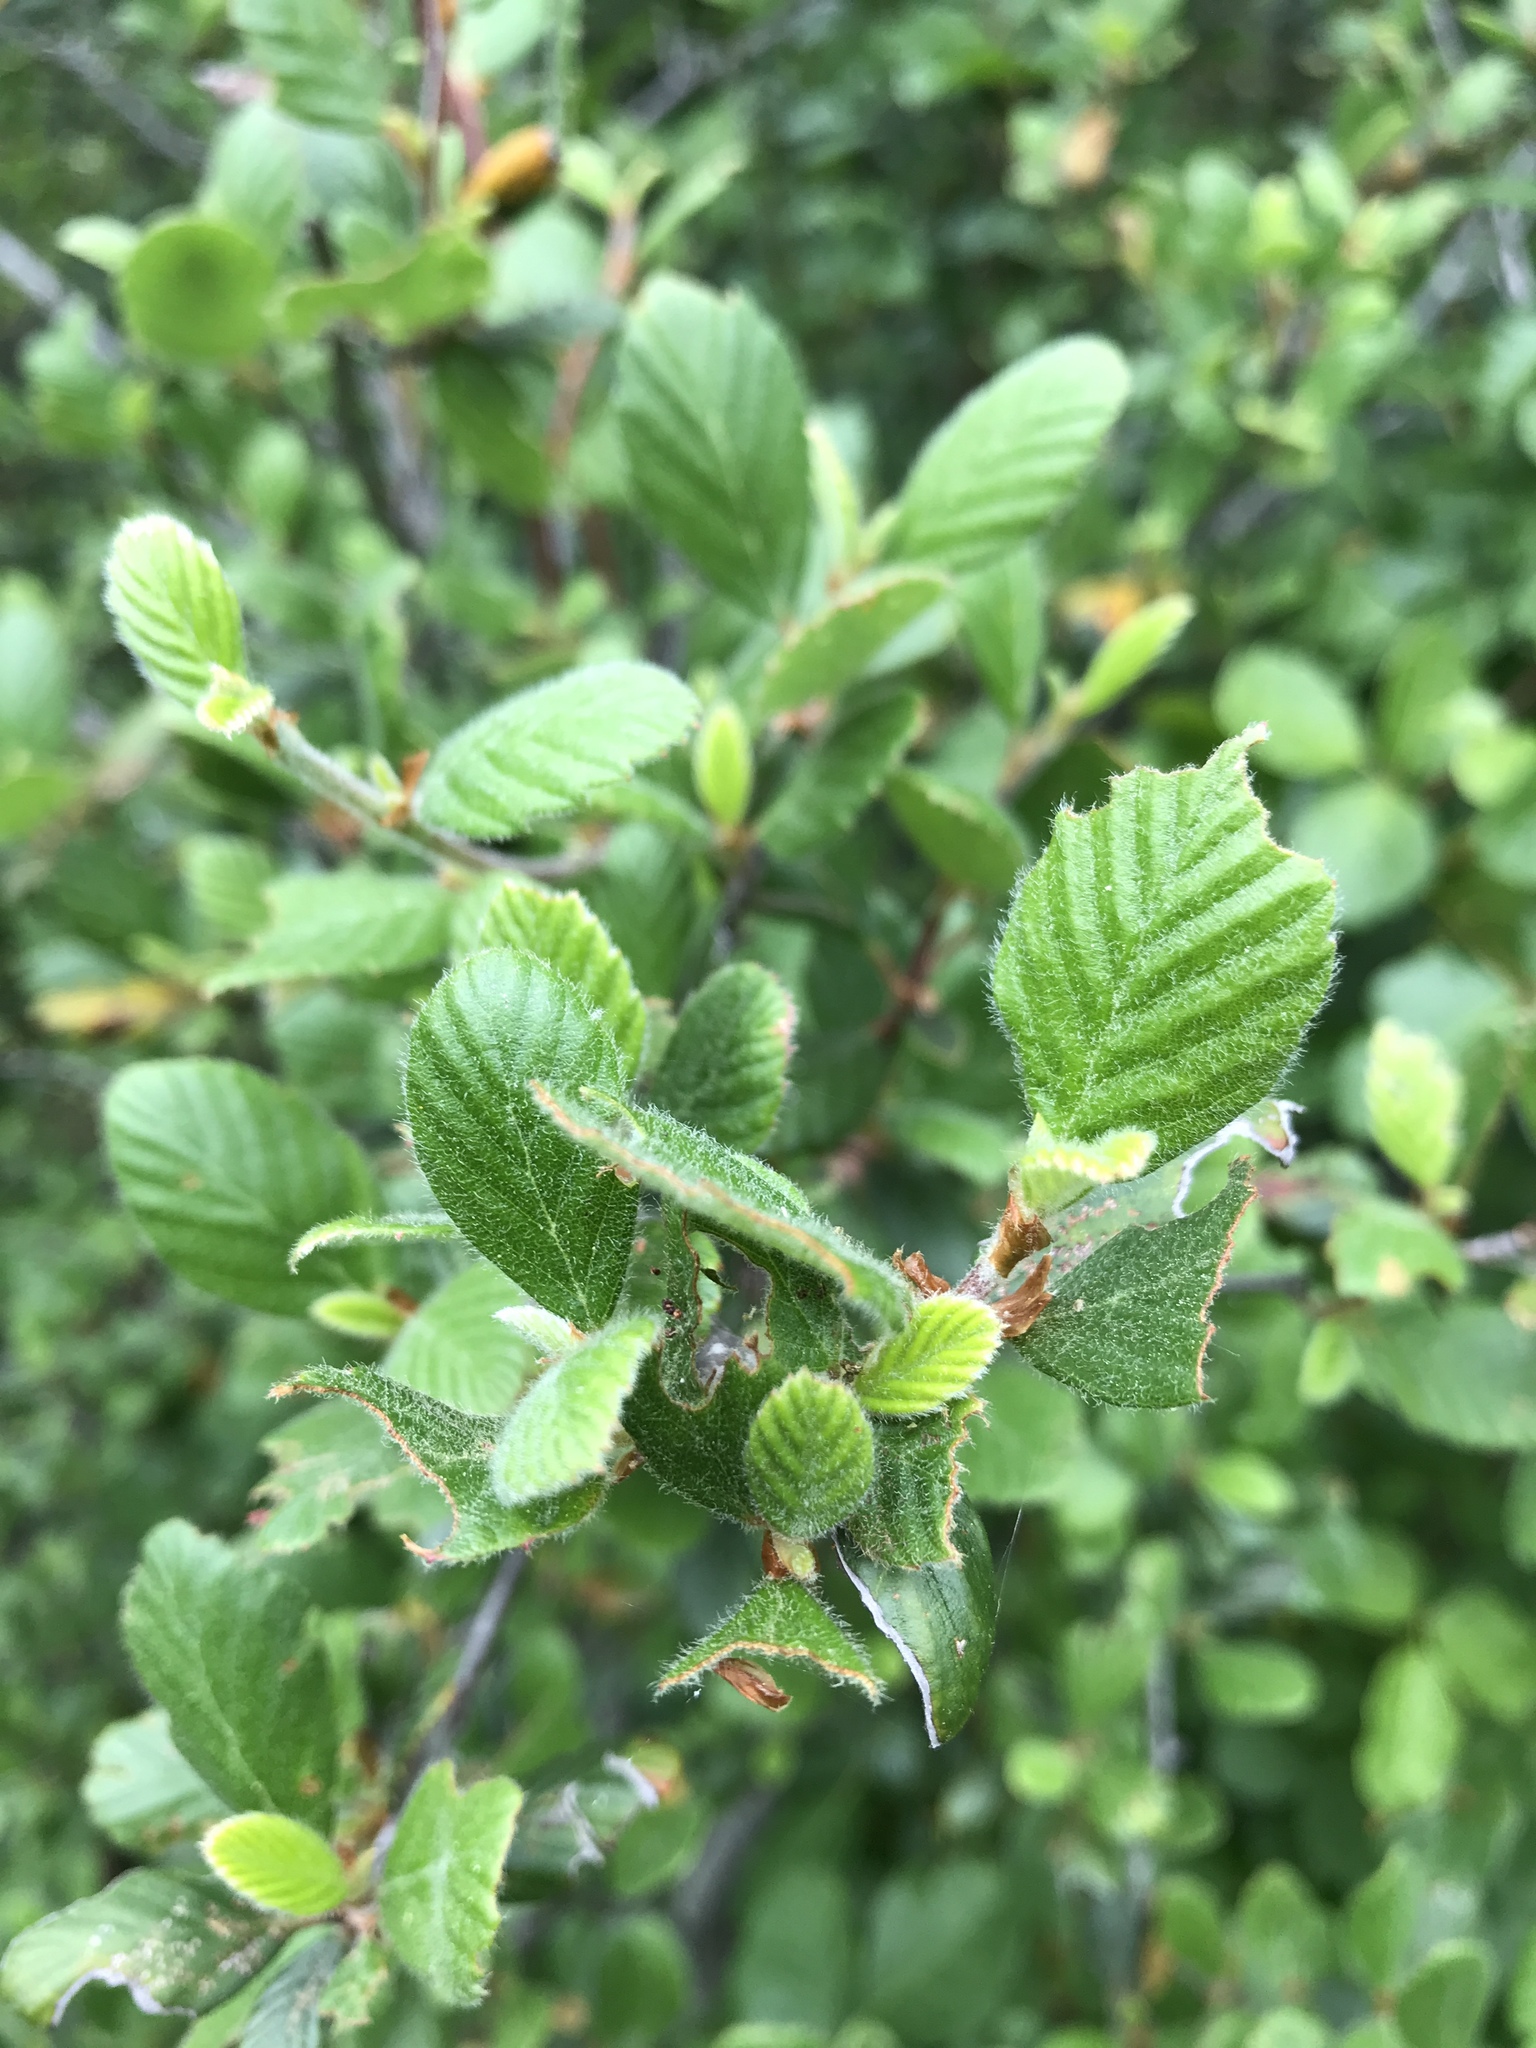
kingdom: Plantae
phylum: Tracheophyta
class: Magnoliopsida
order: Rosales
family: Rosaceae
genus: Cercocarpus
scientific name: Cercocarpus betuloides
